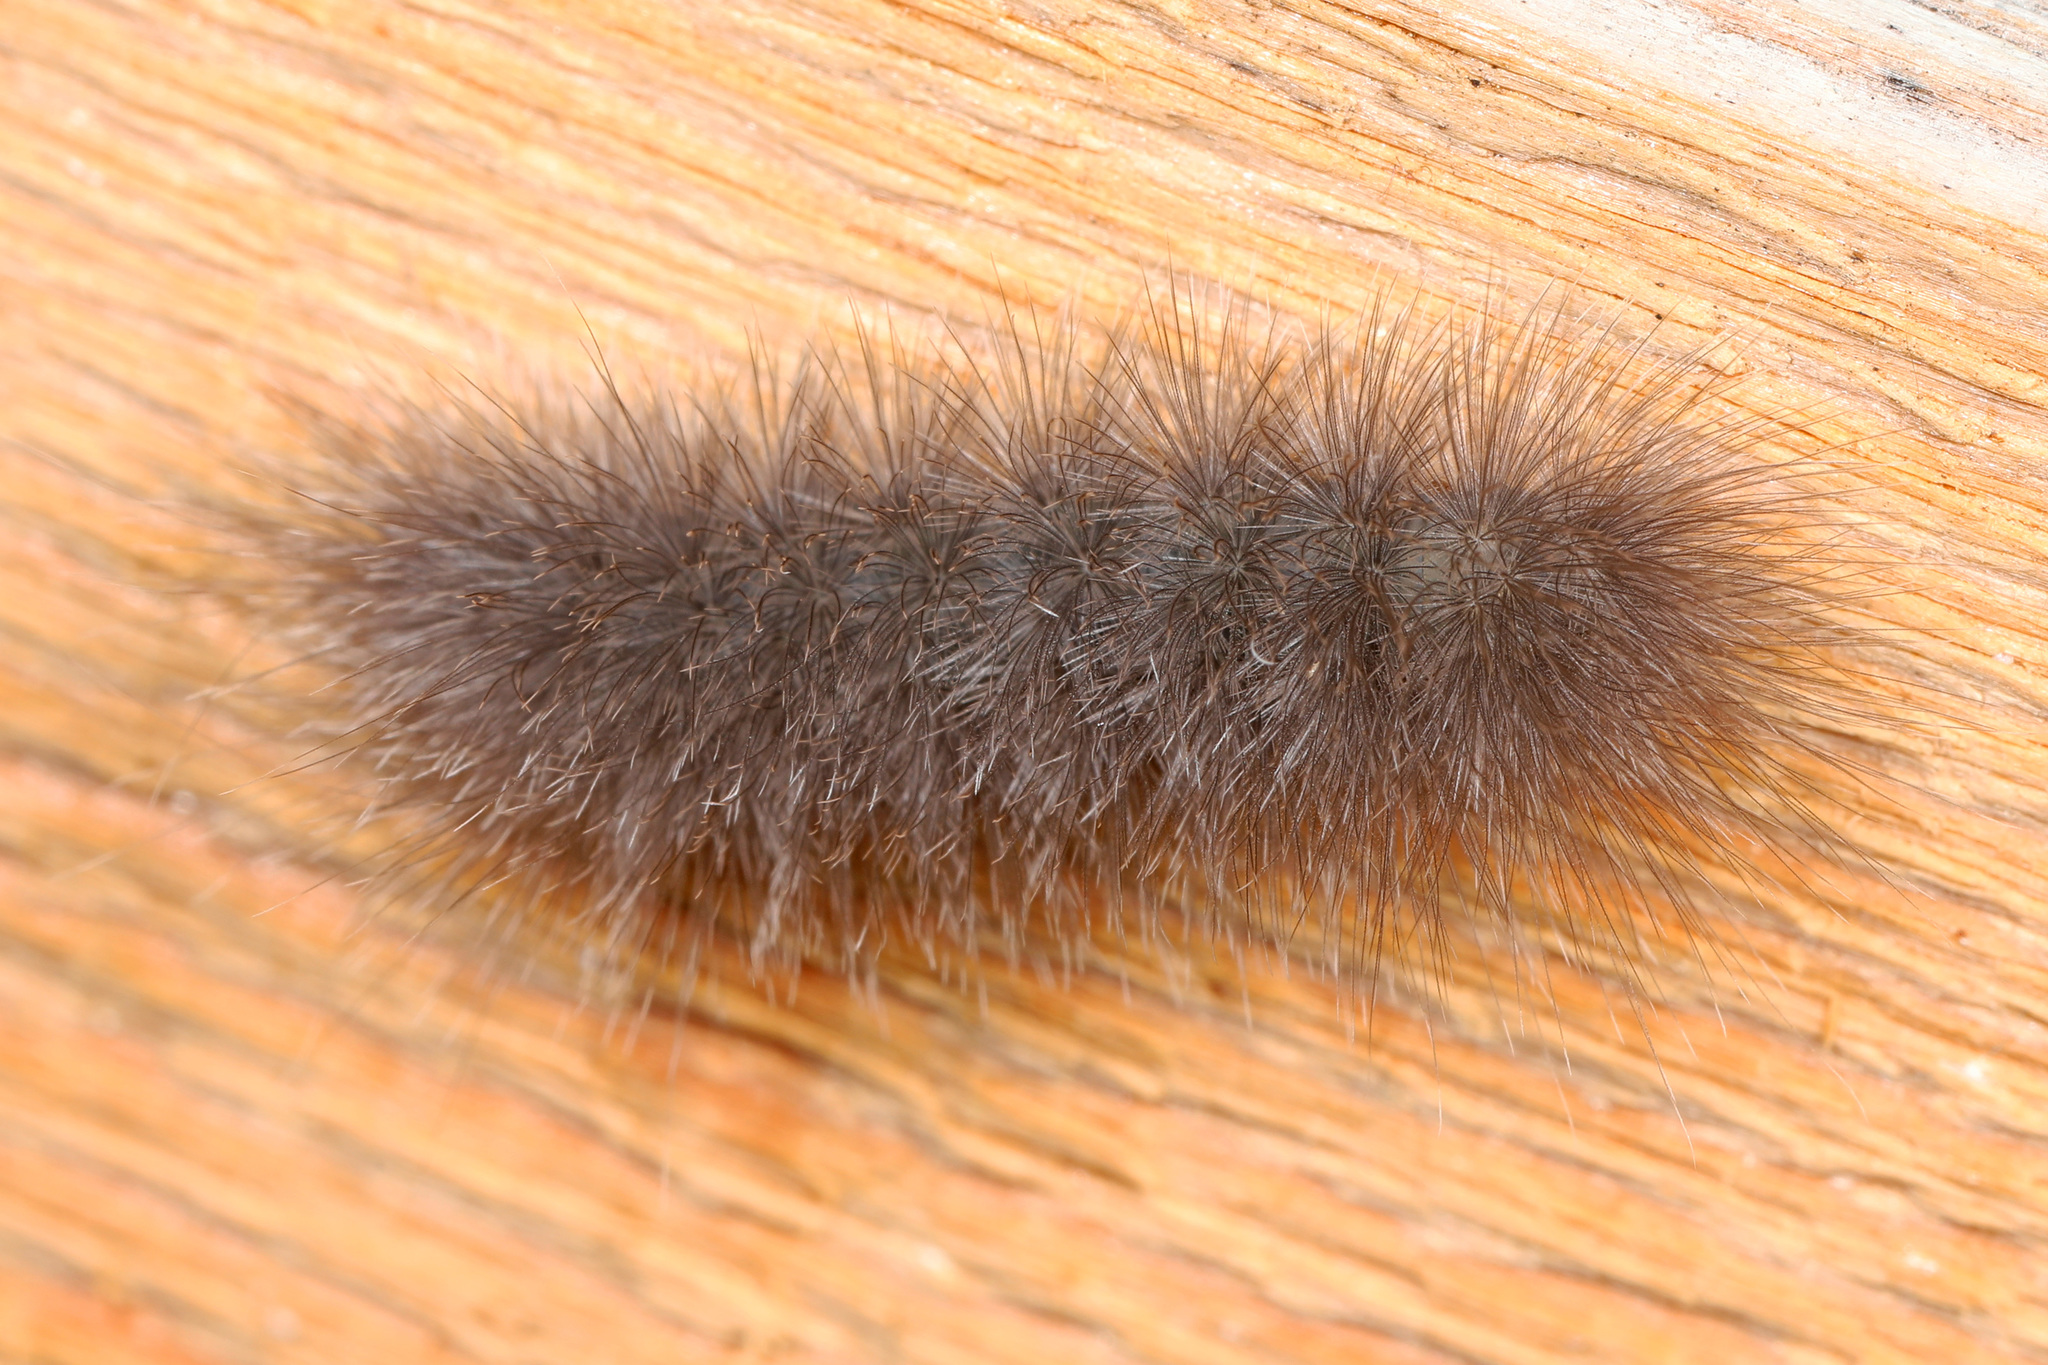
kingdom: Animalia
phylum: Arthropoda
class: Insecta
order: Lepidoptera
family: Erebidae
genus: Cycnia
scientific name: Cycnia tenera
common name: Delicate cycnia moth
